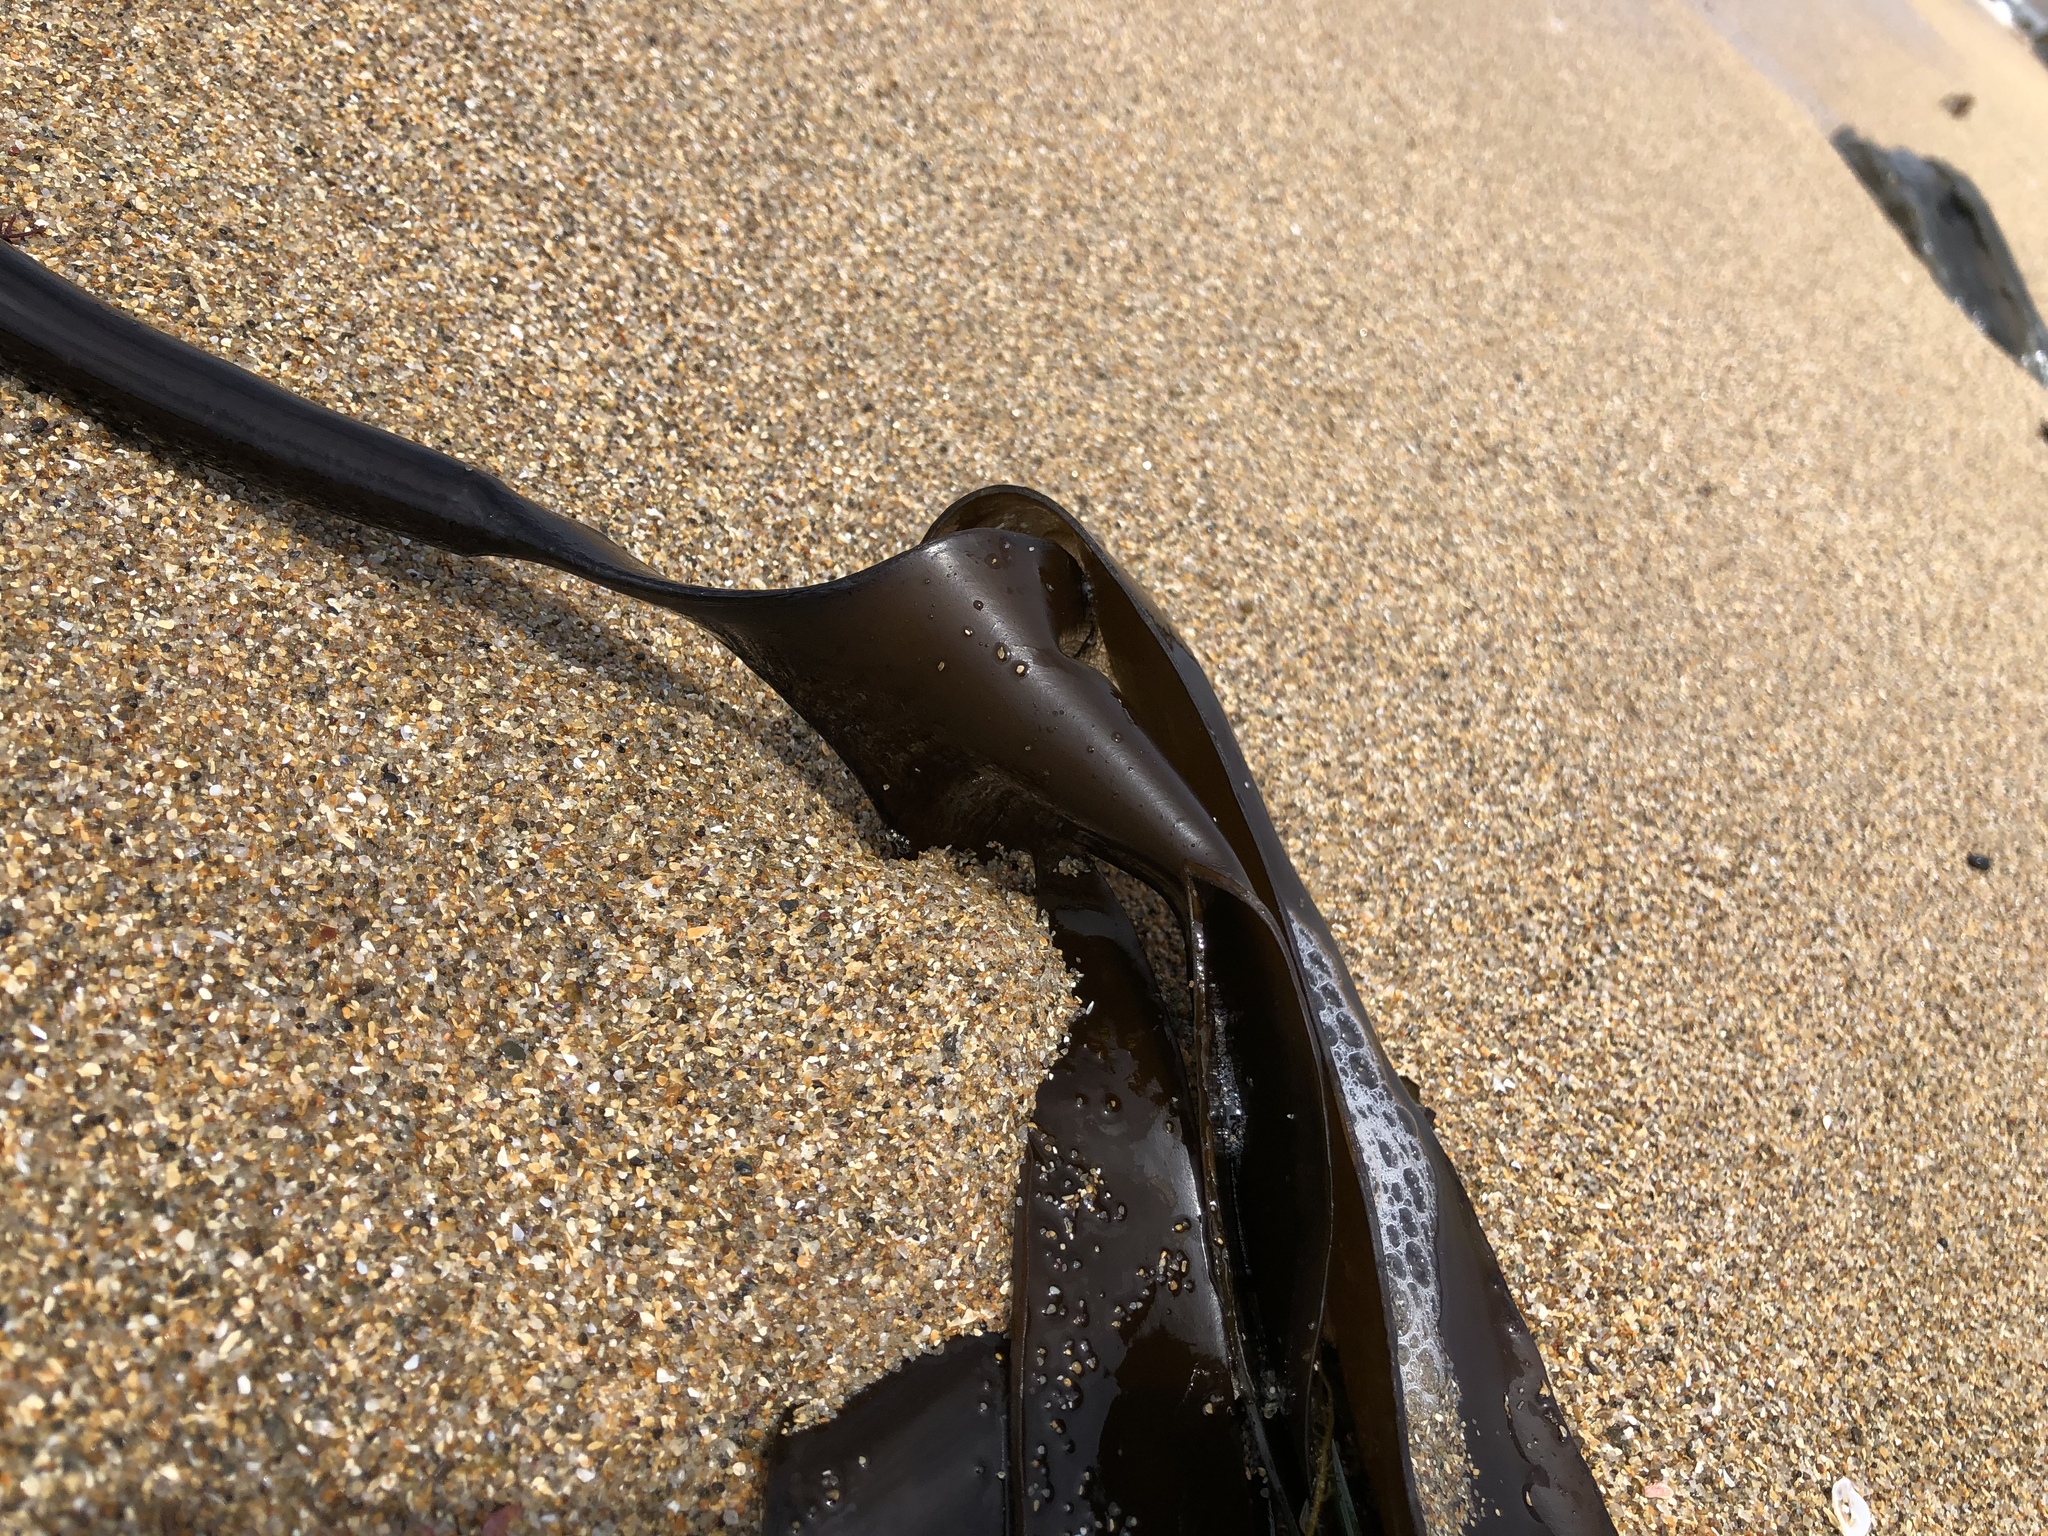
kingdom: Chromista
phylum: Ochrophyta
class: Phaeophyceae
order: Laminariales
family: Laminariaceae
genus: Laminaria
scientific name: Laminaria setchellii
